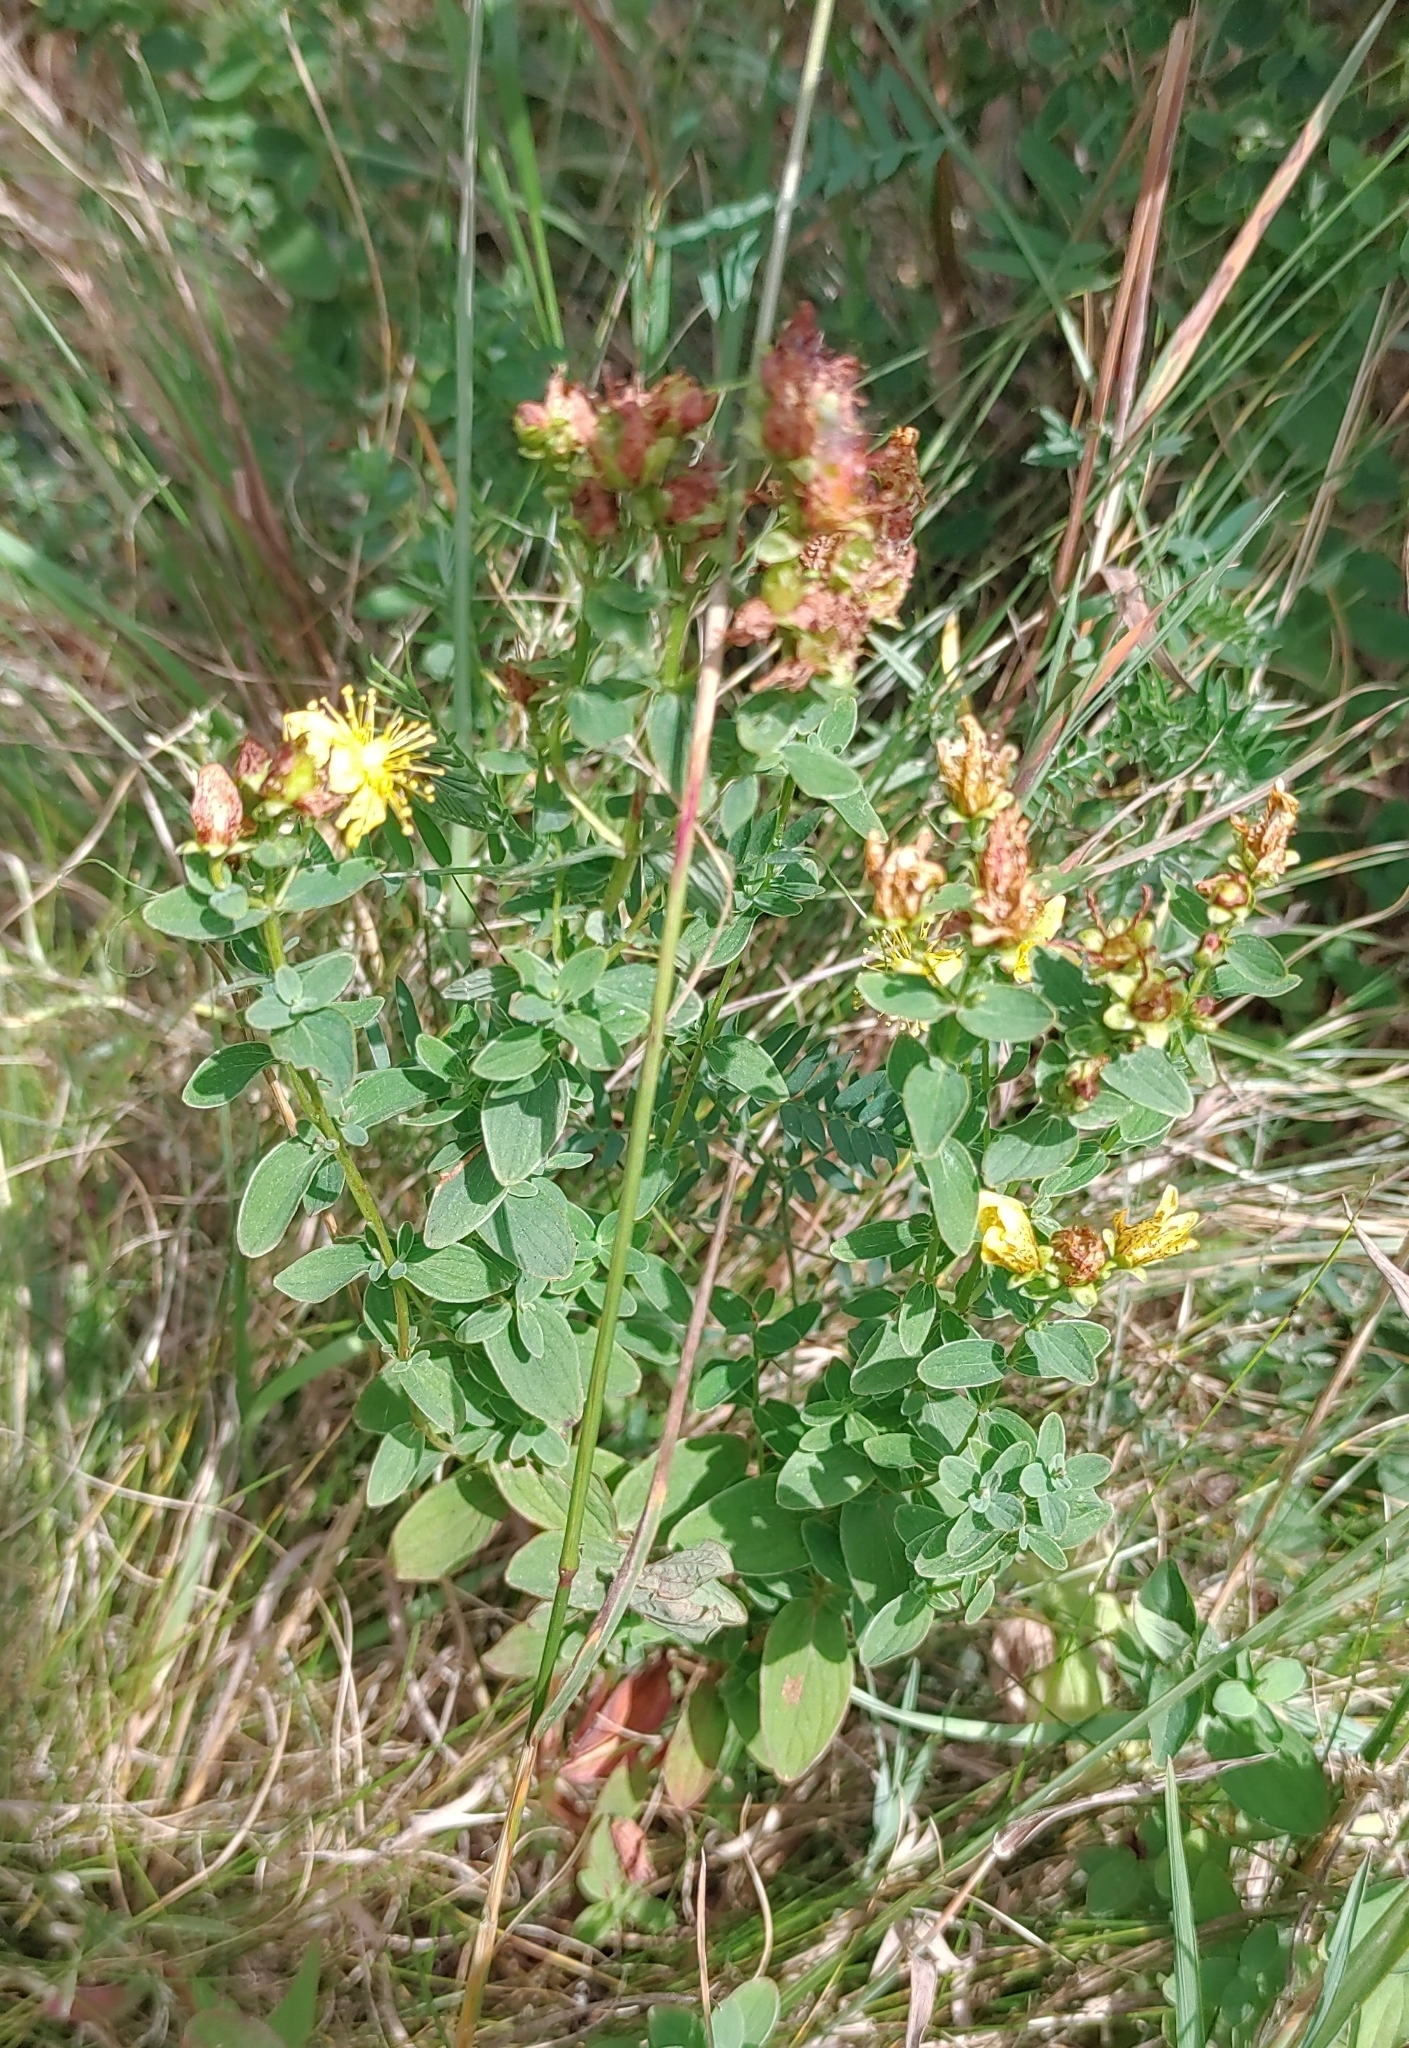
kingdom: Plantae
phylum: Tracheophyta
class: Magnoliopsida
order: Malpighiales
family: Hypericaceae
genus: Hypericum
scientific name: Hypericum maculatum
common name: Imperforate st. john's-wort
